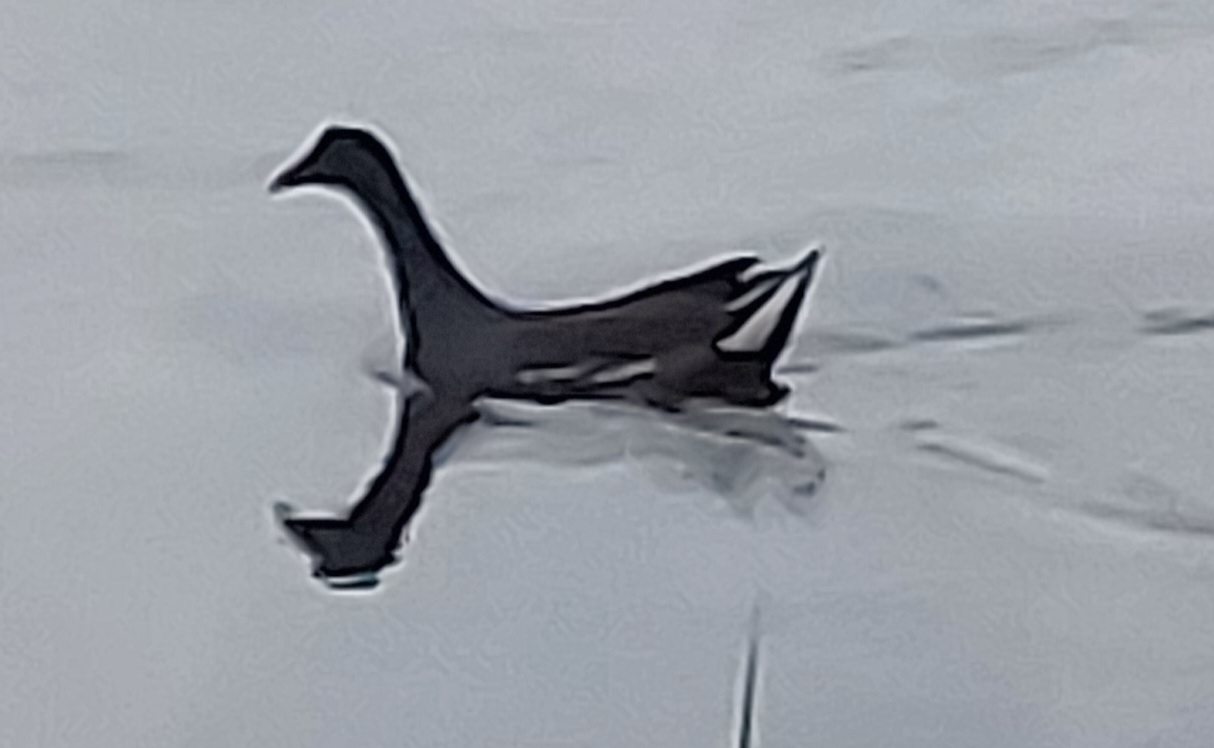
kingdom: Animalia
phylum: Chordata
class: Aves
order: Gruiformes
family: Rallidae
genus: Gallinula
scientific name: Gallinula chloropus
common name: Common moorhen
